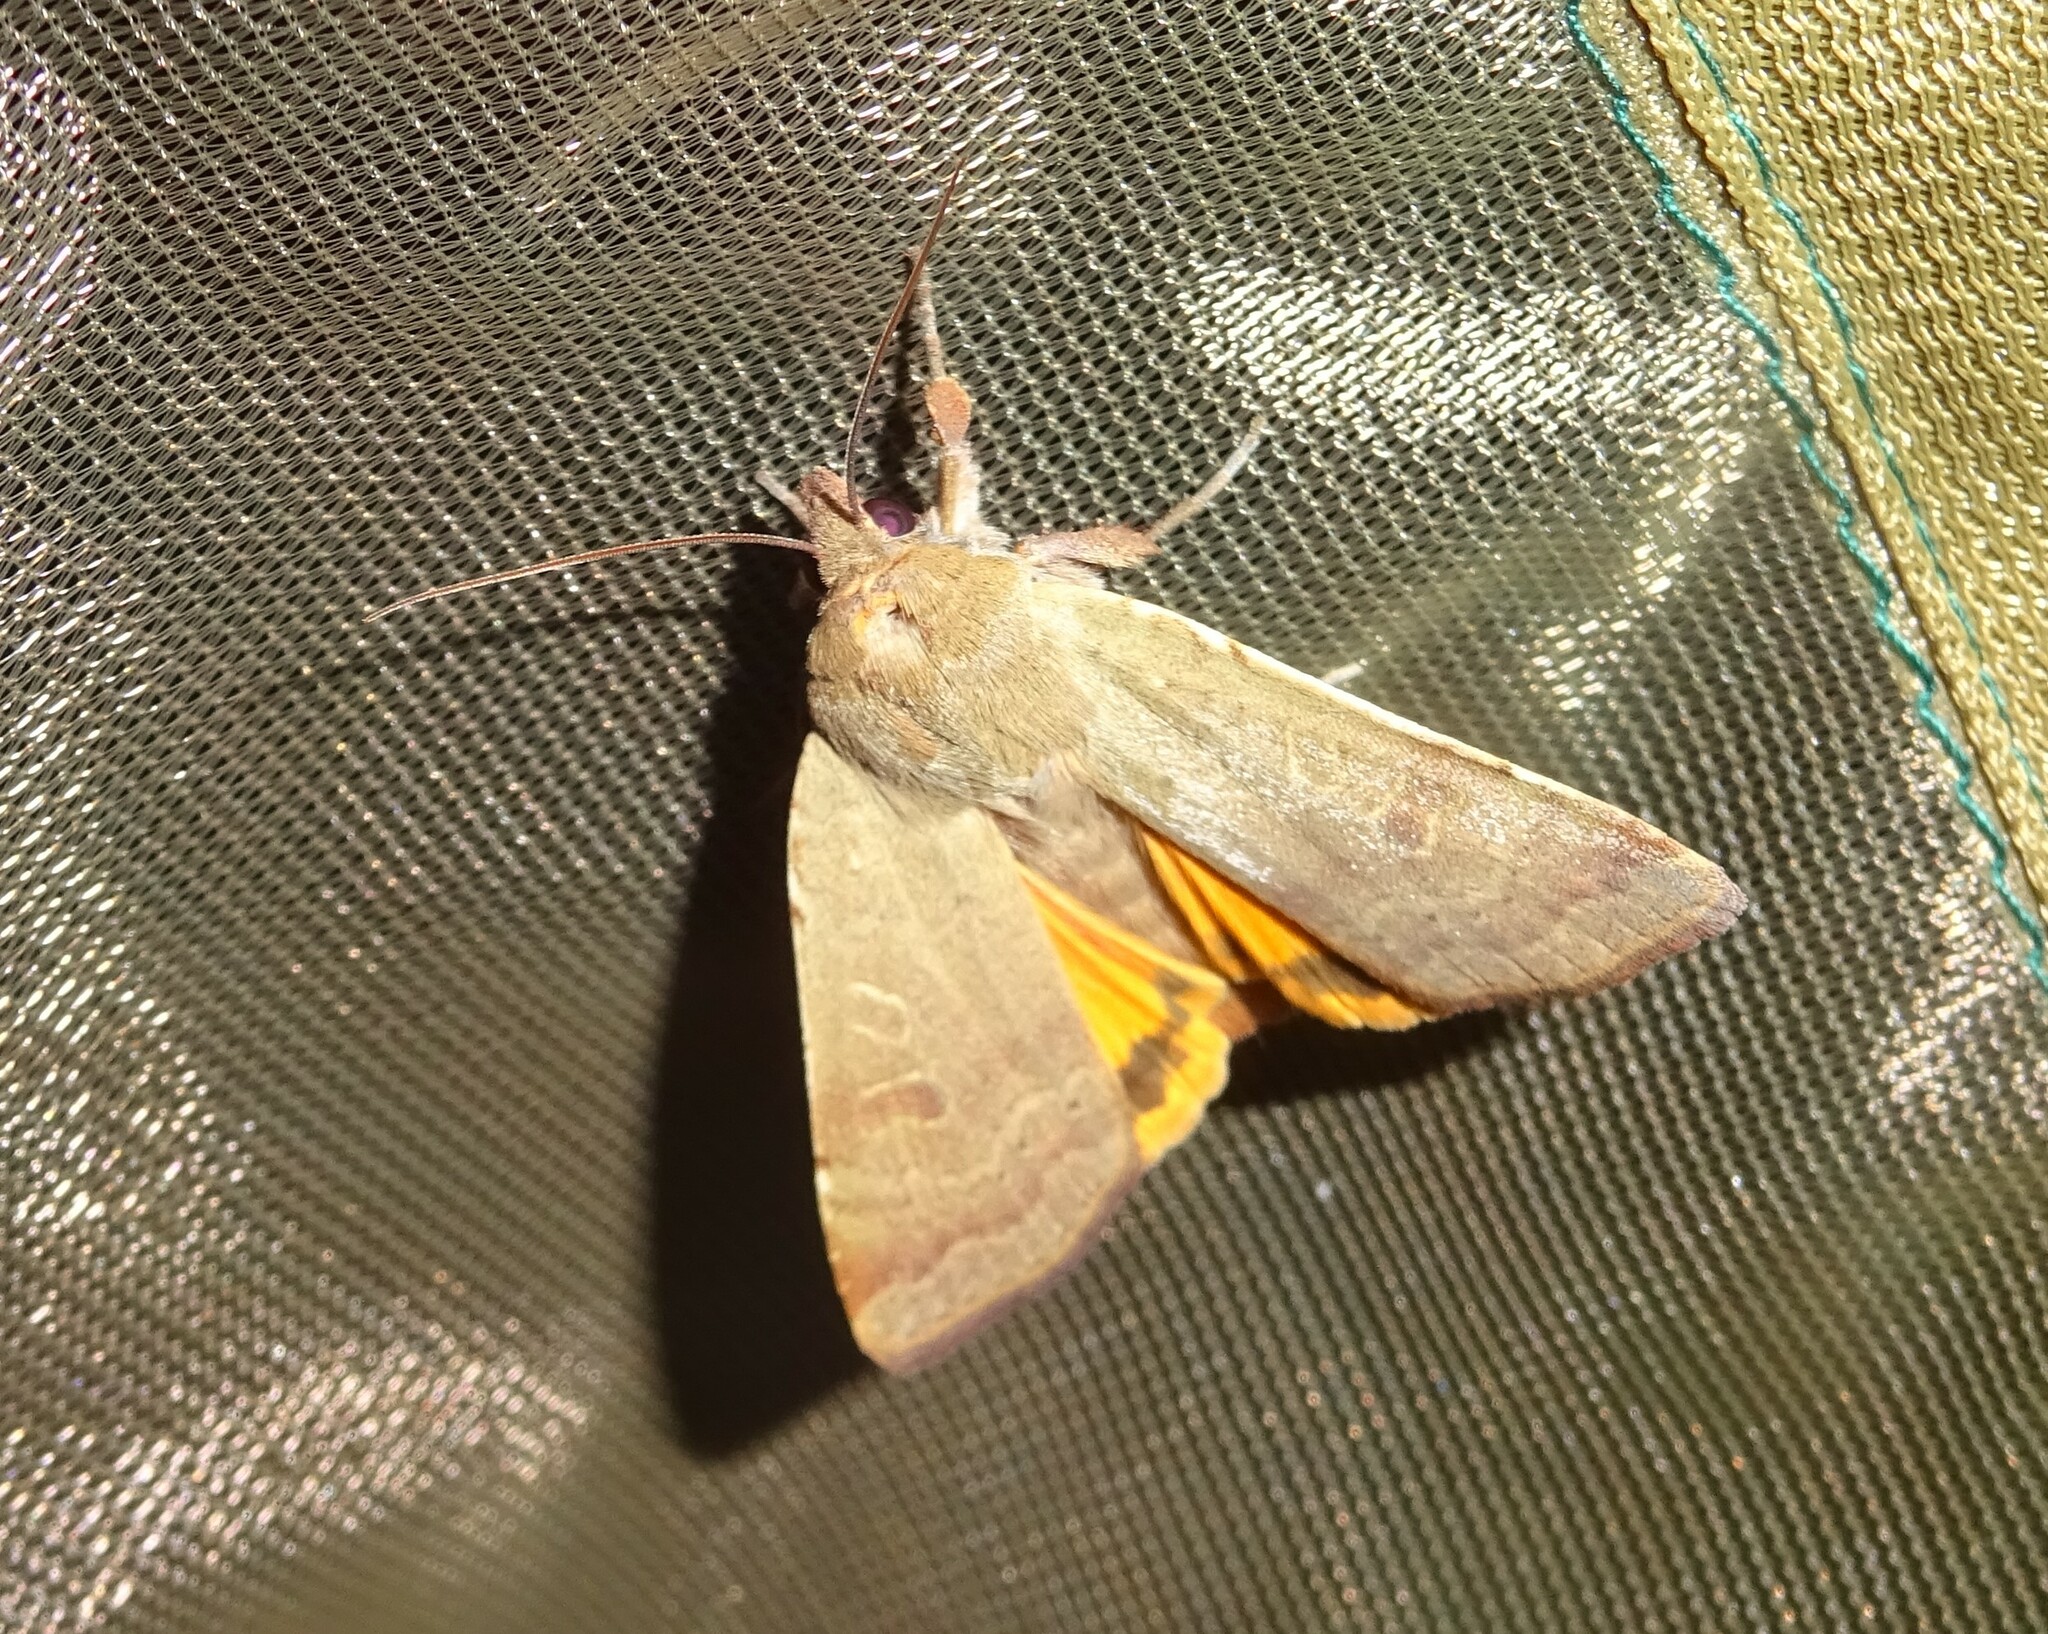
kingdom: Animalia
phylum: Arthropoda
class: Insecta
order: Lepidoptera
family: Noctuidae
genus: Noctua
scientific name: Noctua comes
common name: Lesser yellow underwing
